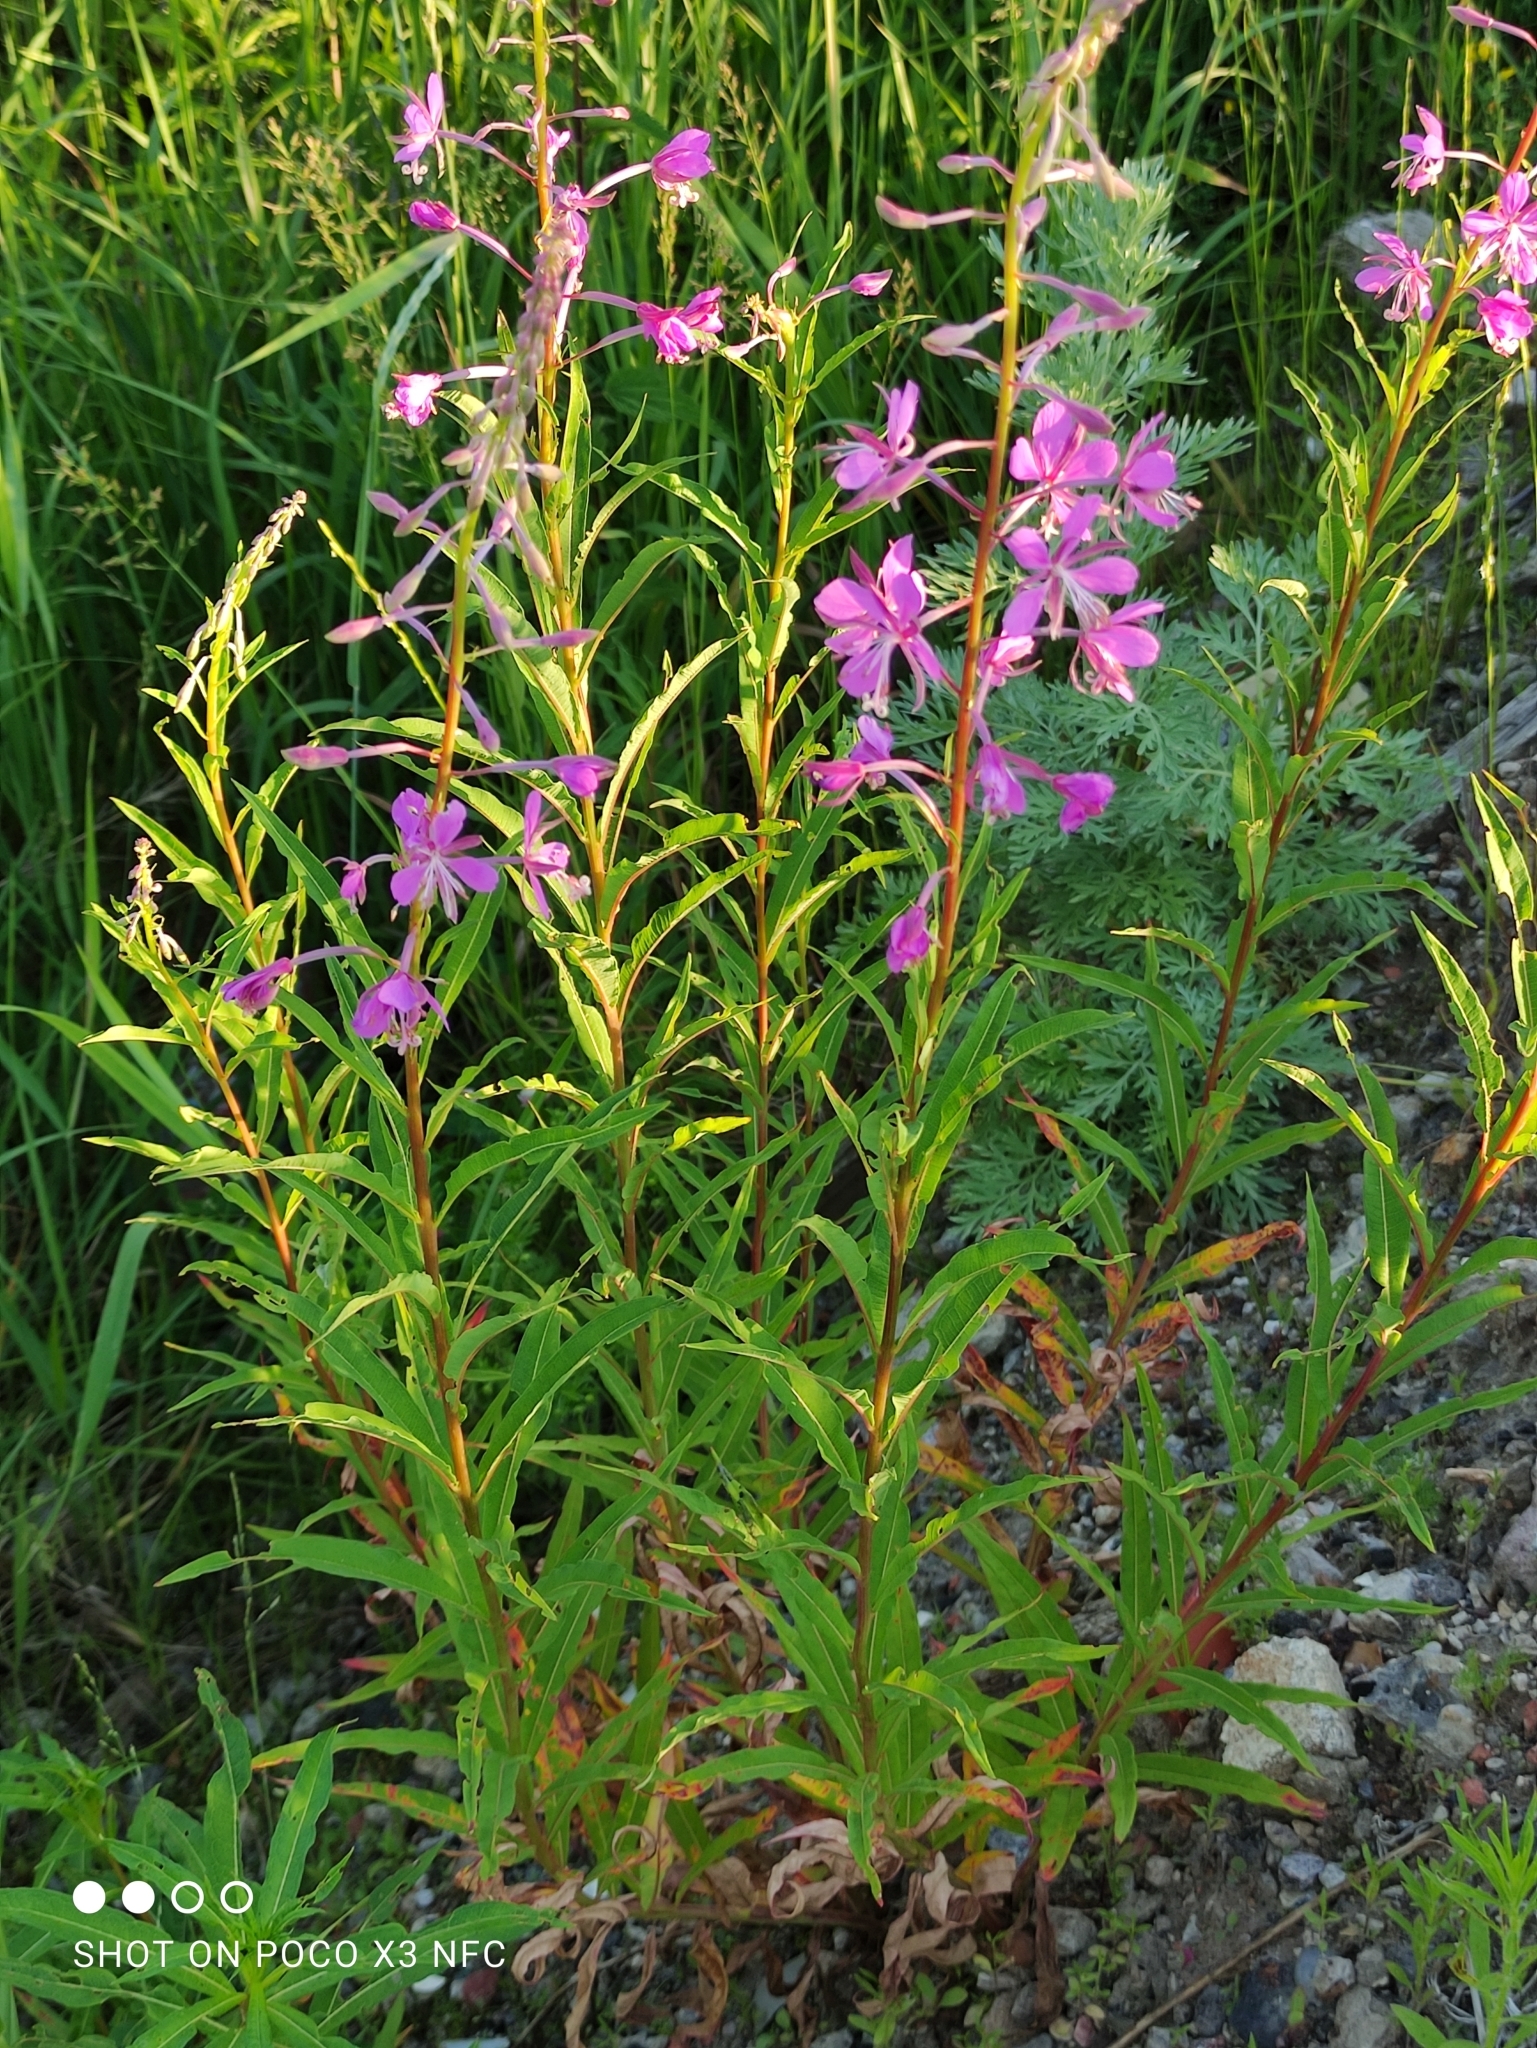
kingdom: Plantae
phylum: Tracheophyta
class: Magnoliopsida
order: Myrtales
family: Onagraceae
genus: Chamaenerion
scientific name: Chamaenerion angustifolium
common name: Fireweed
